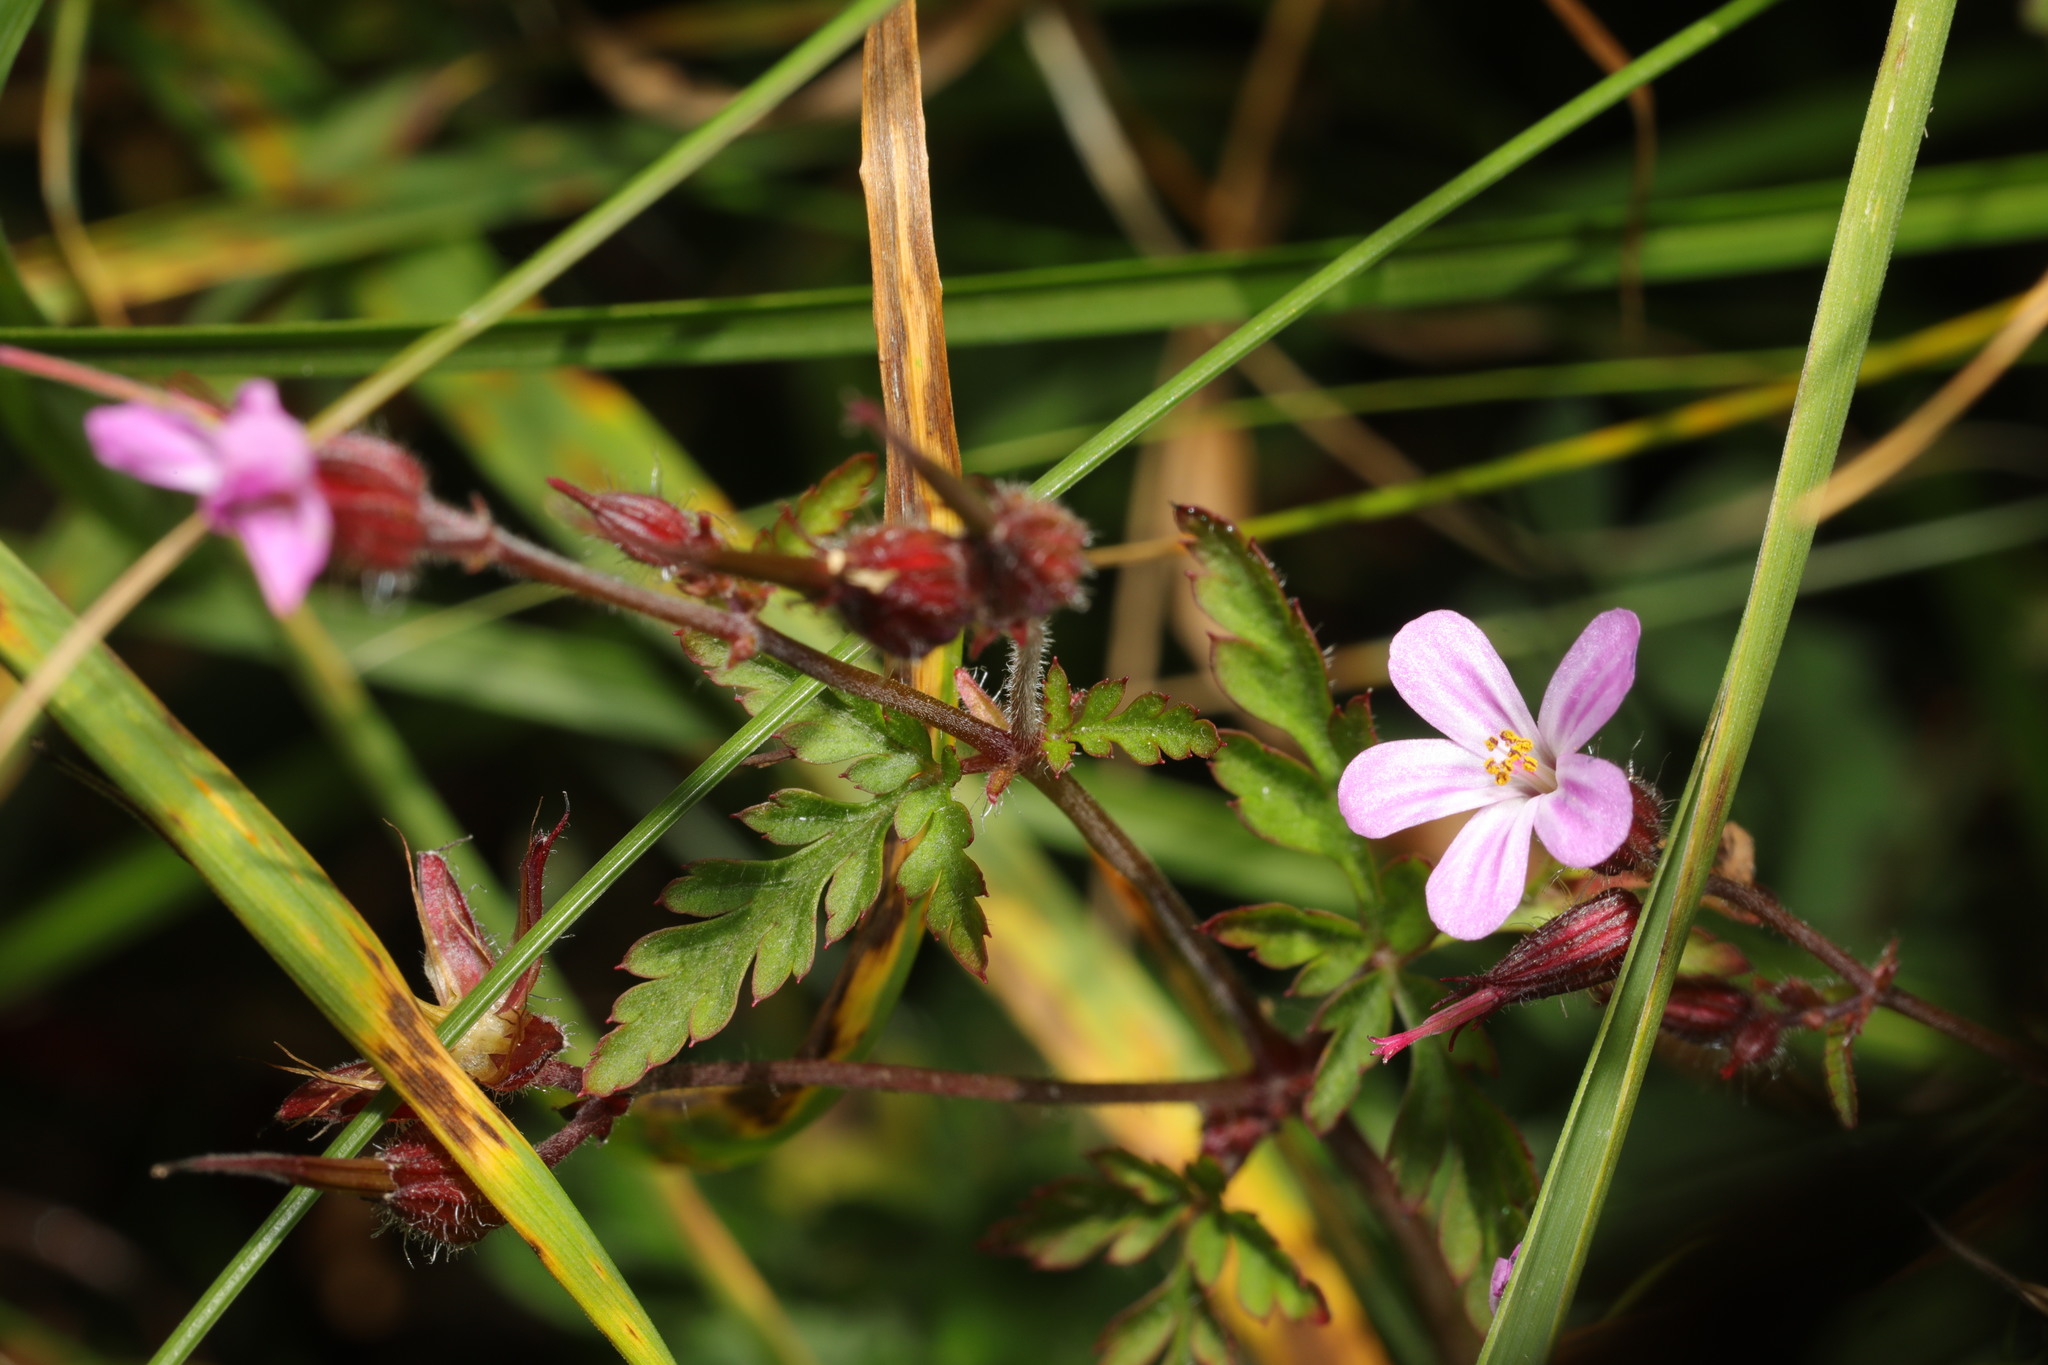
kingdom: Plantae
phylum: Tracheophyta
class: Magnoliopsida
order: Geraniales
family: Geraniaceae
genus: Geranium
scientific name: Geranium robertianum
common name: Herb-robert
